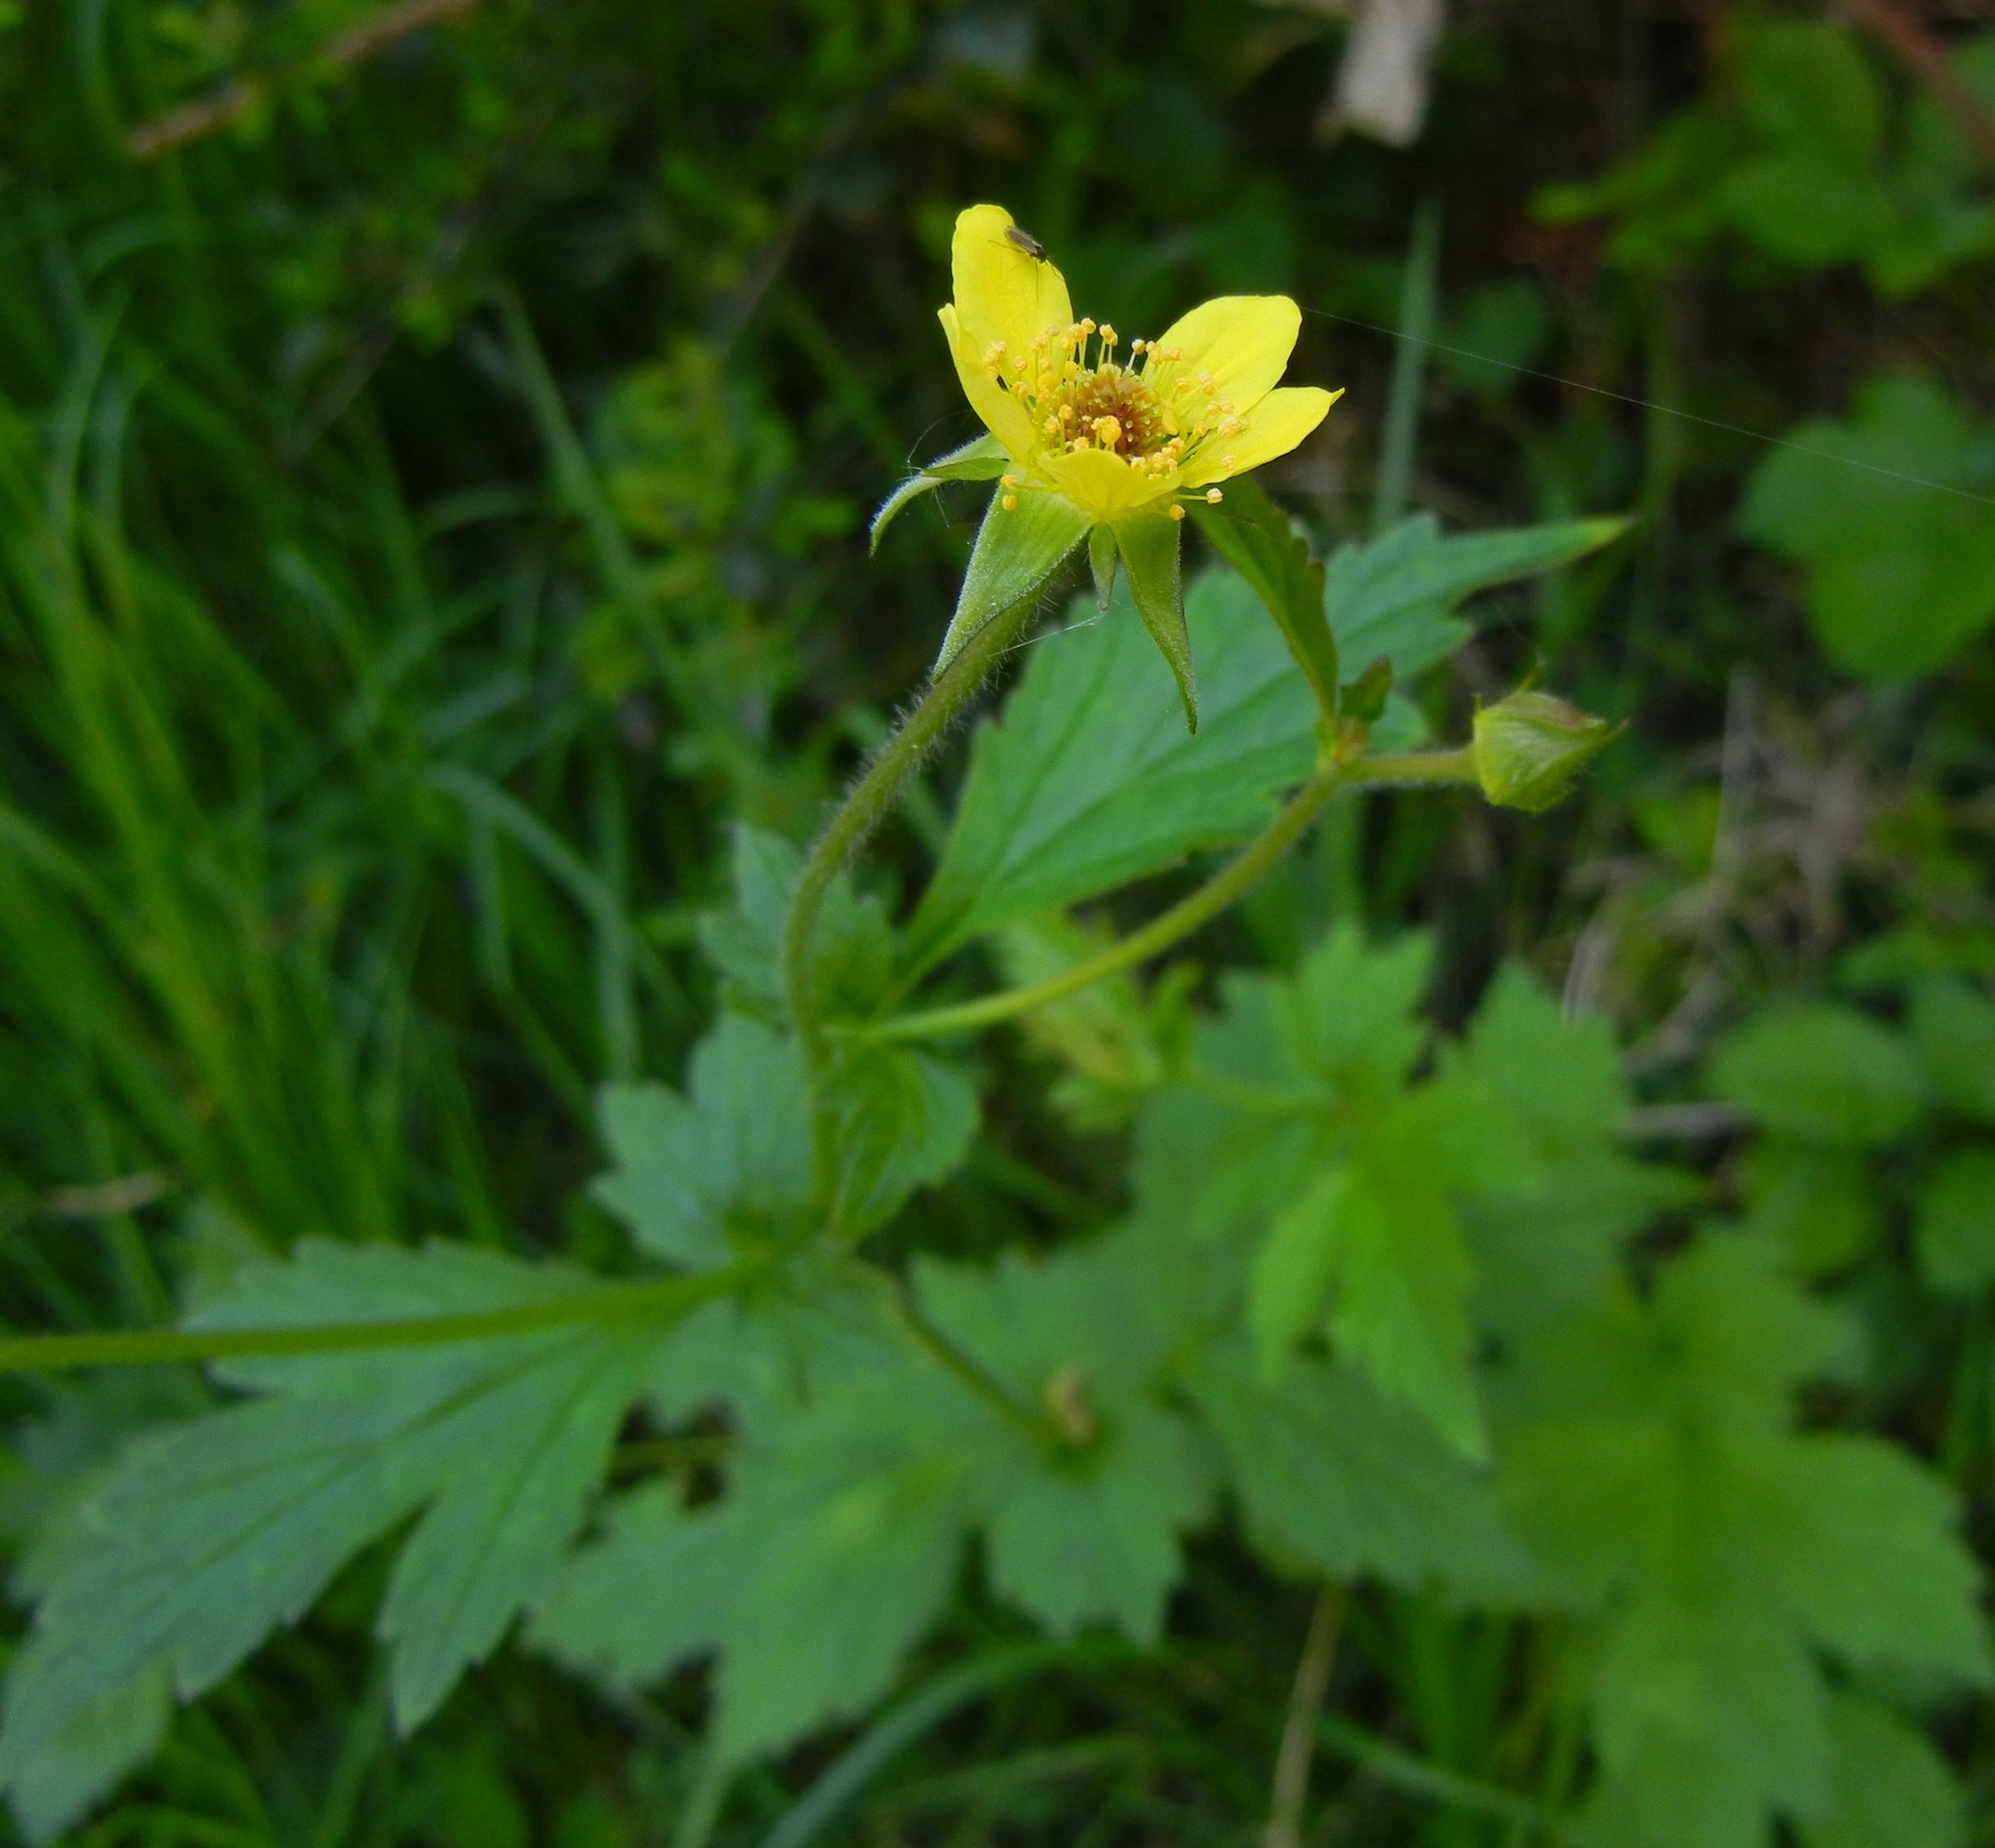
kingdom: Plantae
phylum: Tracheophyta
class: Magnoliopsida
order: Rosales
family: Rosaceae
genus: Geum
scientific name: Geum urbanum
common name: Wood avens
